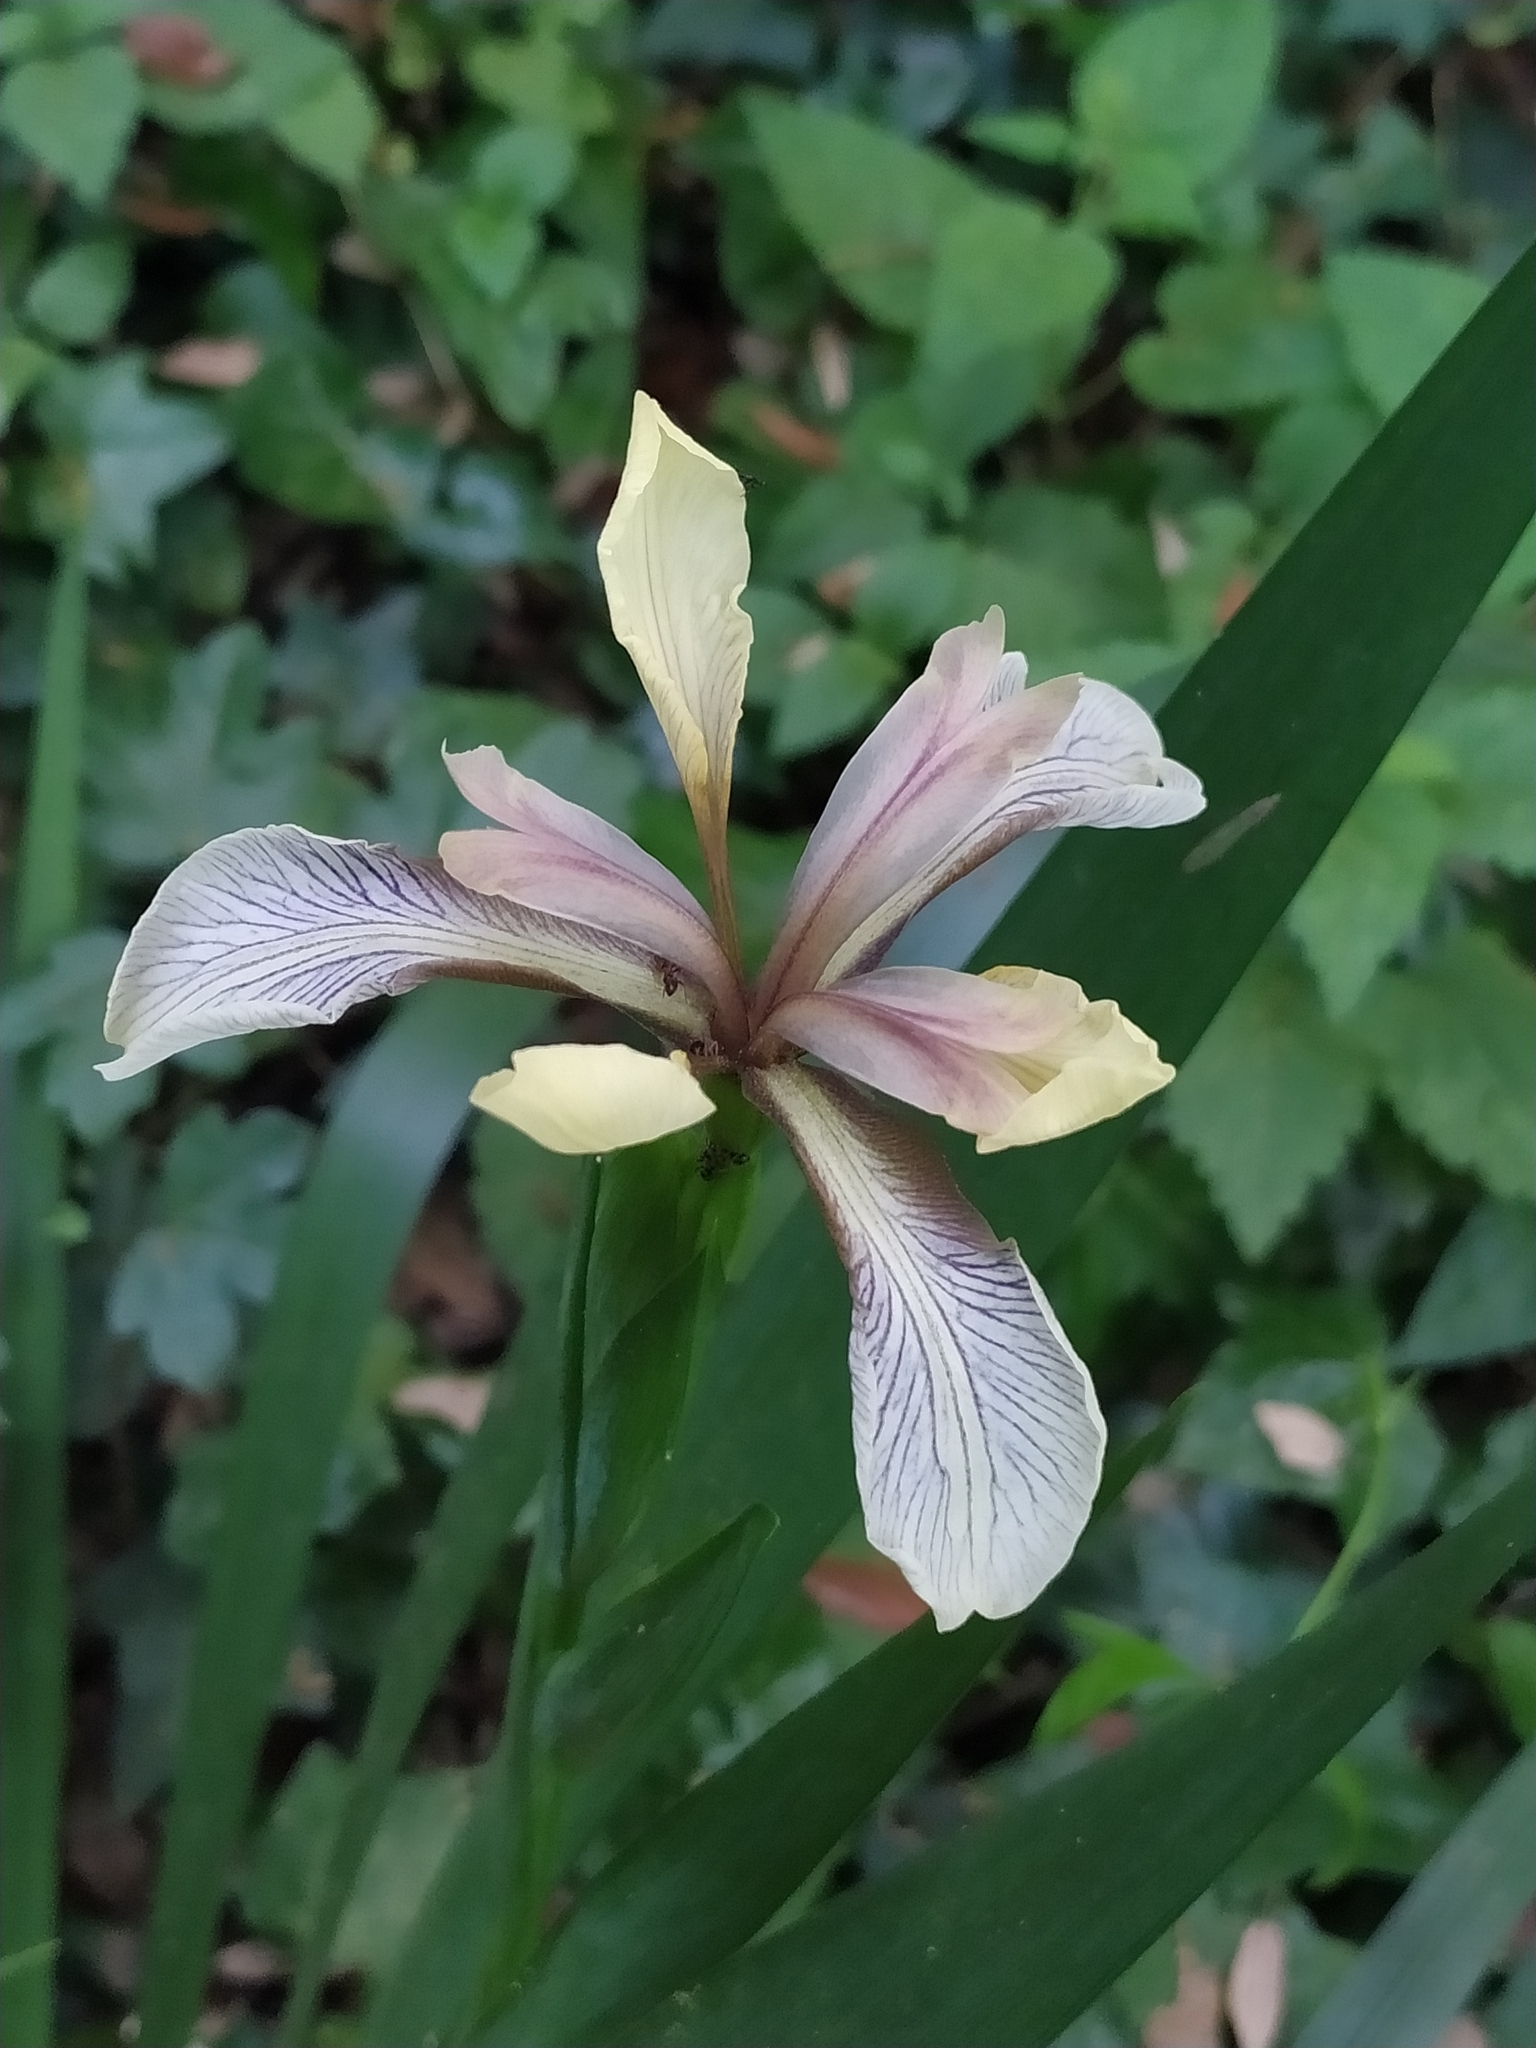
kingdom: Plantae
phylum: Tracheophyta
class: Liliopsida
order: Asparagales
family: Iridaceae
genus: Iris
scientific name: Iris foetidissima
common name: Stinking iris
